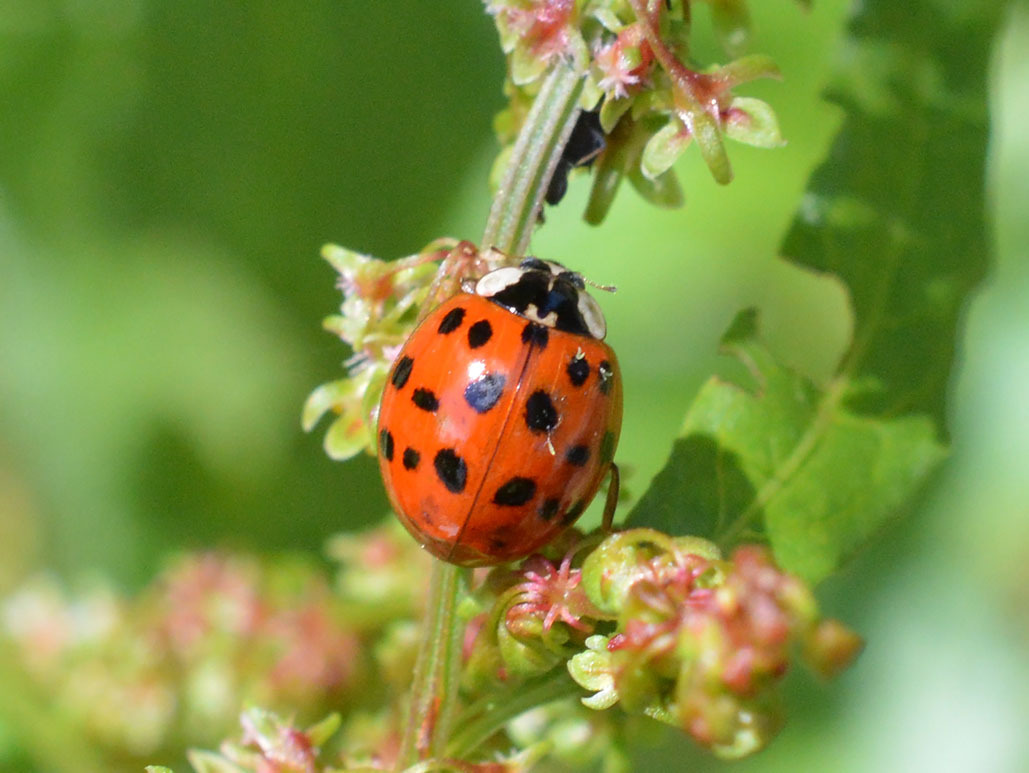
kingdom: Animalia
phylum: Arthropoda
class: Insecta
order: Coleoptera
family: Coccinellidae
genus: Harmonia
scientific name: Harmonia axyridis
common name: Harlequin ladybird
